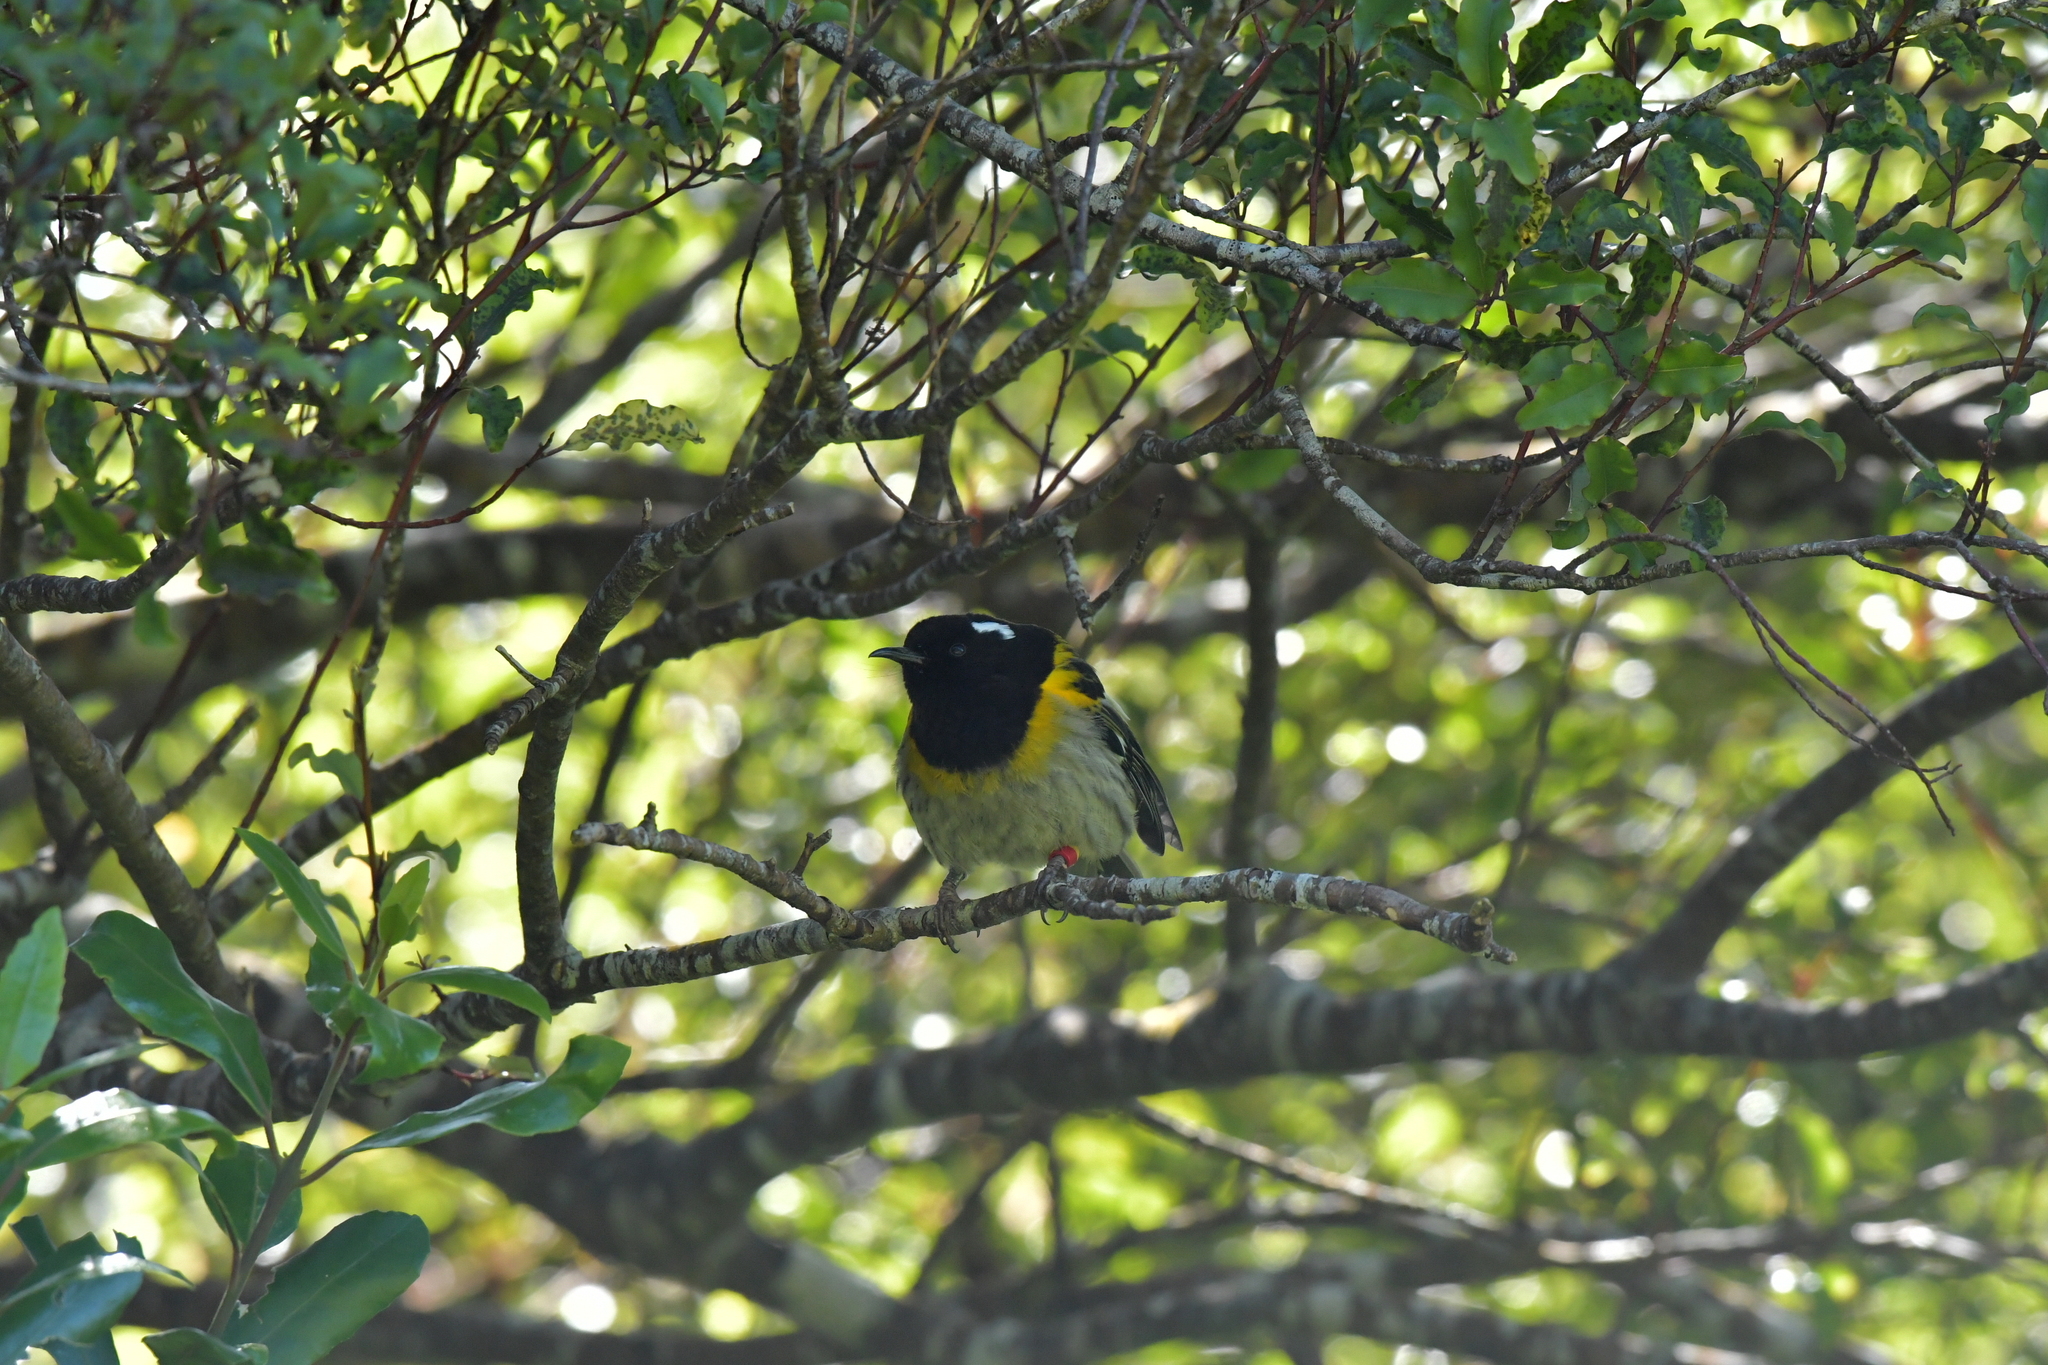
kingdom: Animalia
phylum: Chordata
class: Aves
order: Passeriformes
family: Notiomystidae
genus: Notiomystis
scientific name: Notiomystis cincta
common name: Stitchbird
